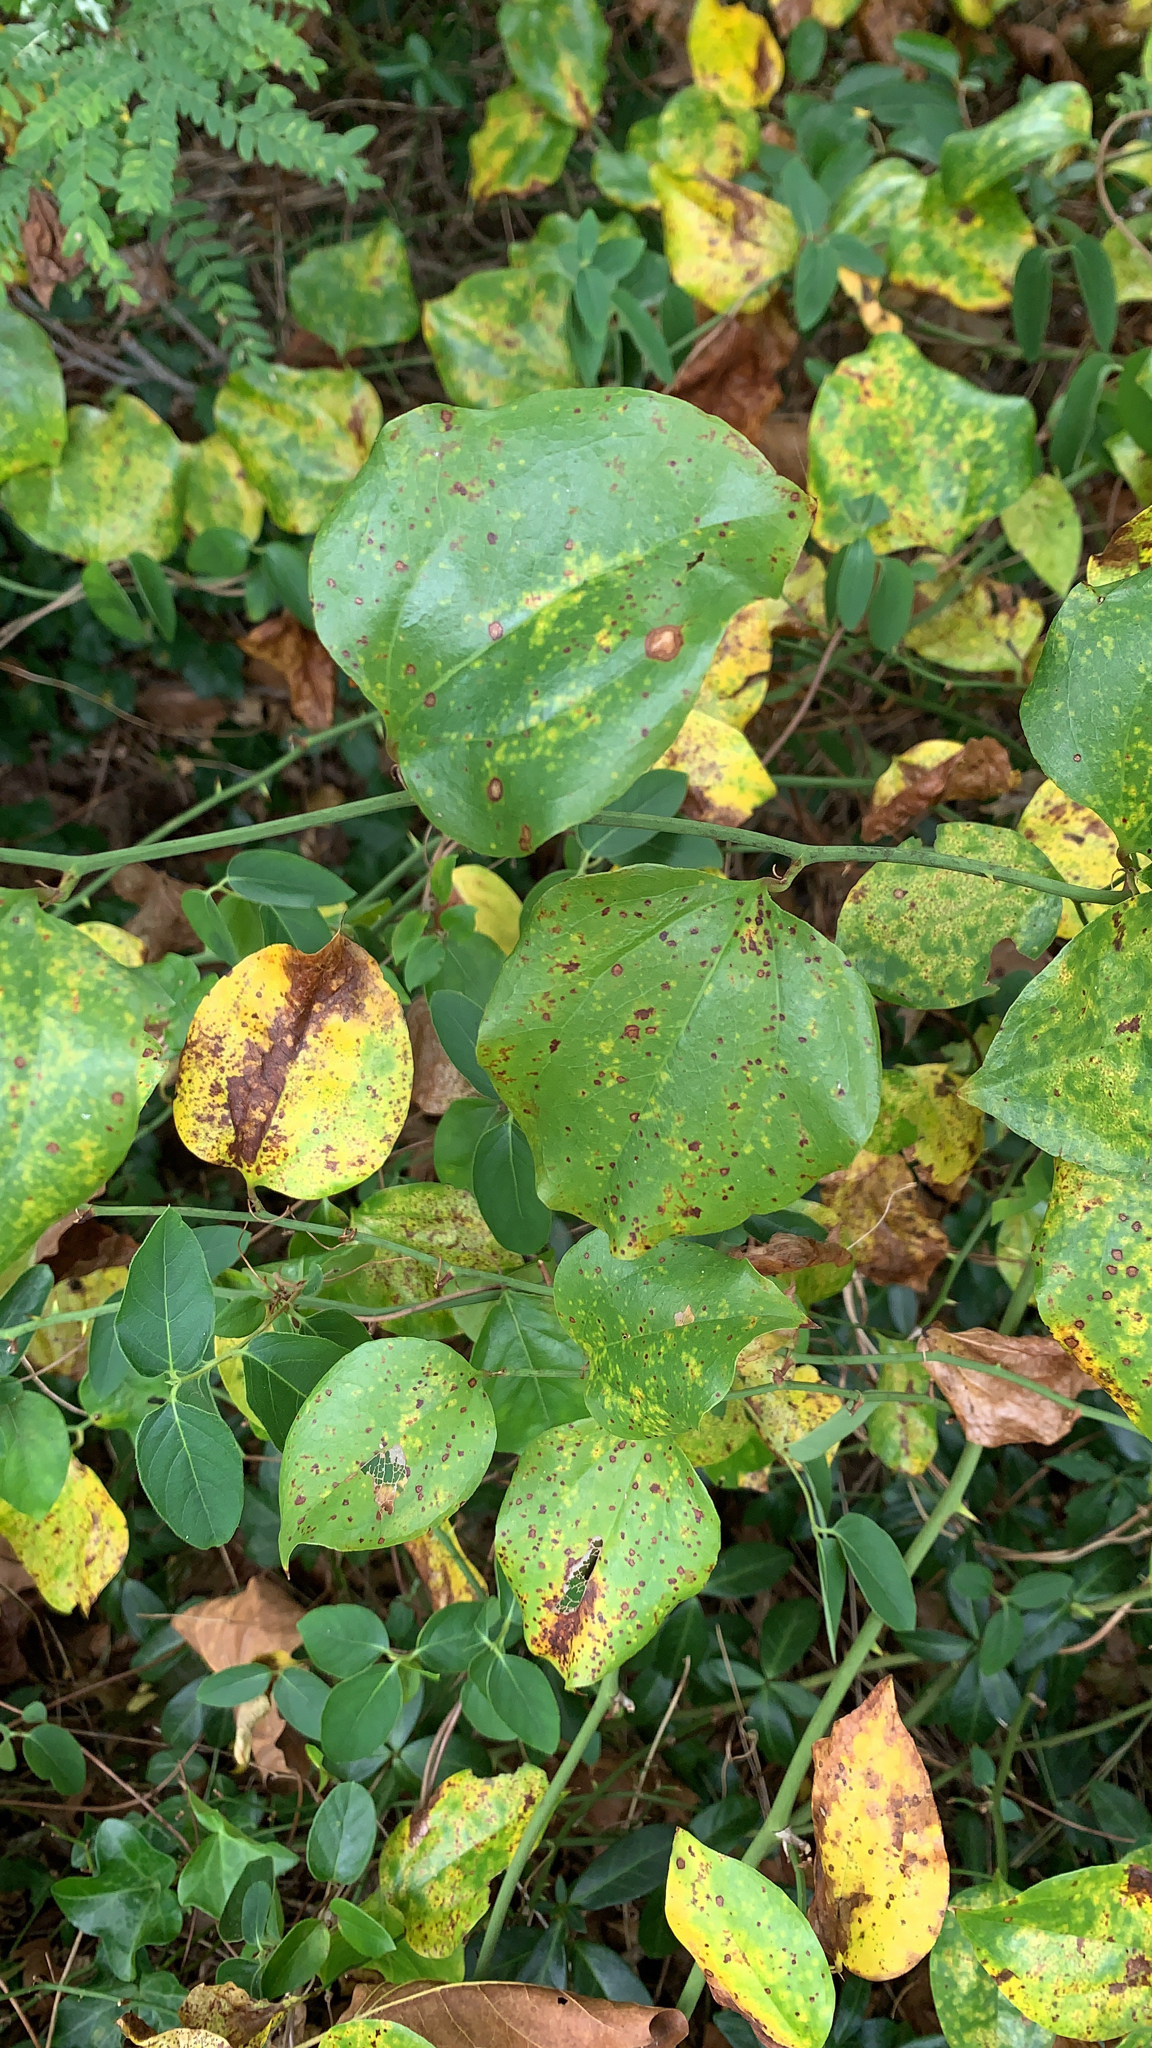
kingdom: Plantae
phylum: Tracheophyta
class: Liliopsida
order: Liliales
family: Smilacaceae
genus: Smilax
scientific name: Smilax rotundifolia
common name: Bullbriar
